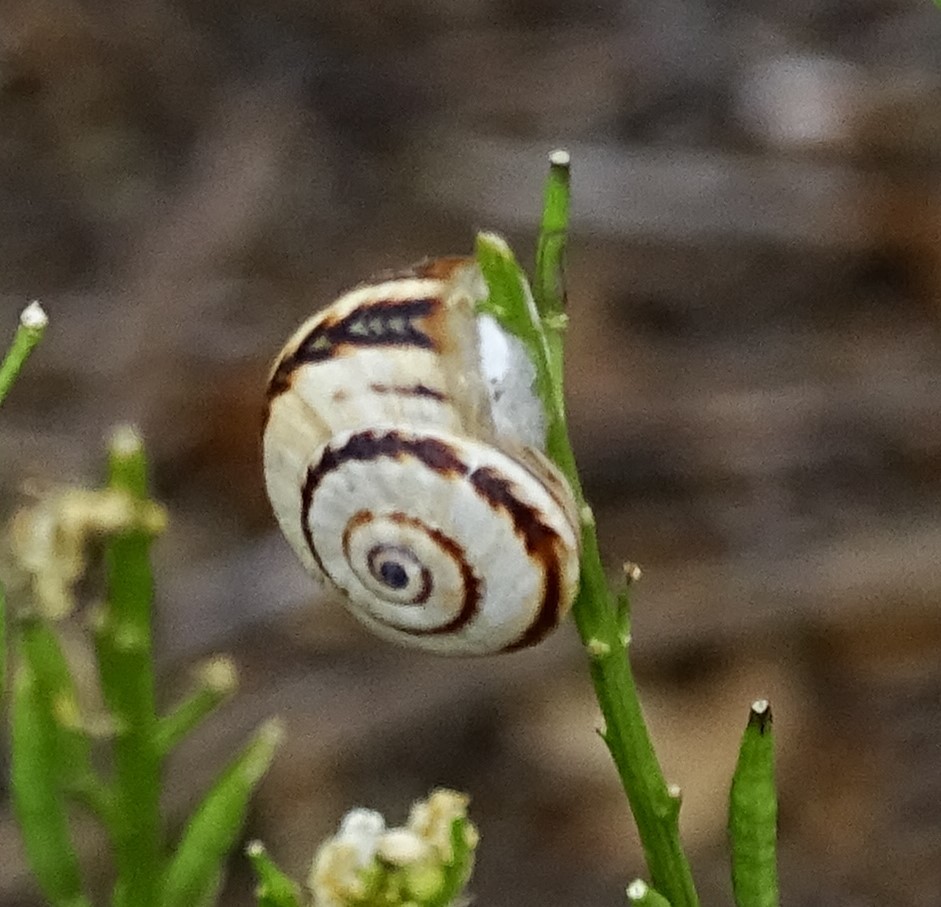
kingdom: Animalia
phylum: Mollusca
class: Gastropoda
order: Stylommatophora
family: Helicidae
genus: Theba
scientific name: Theba pisana
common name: White snail
